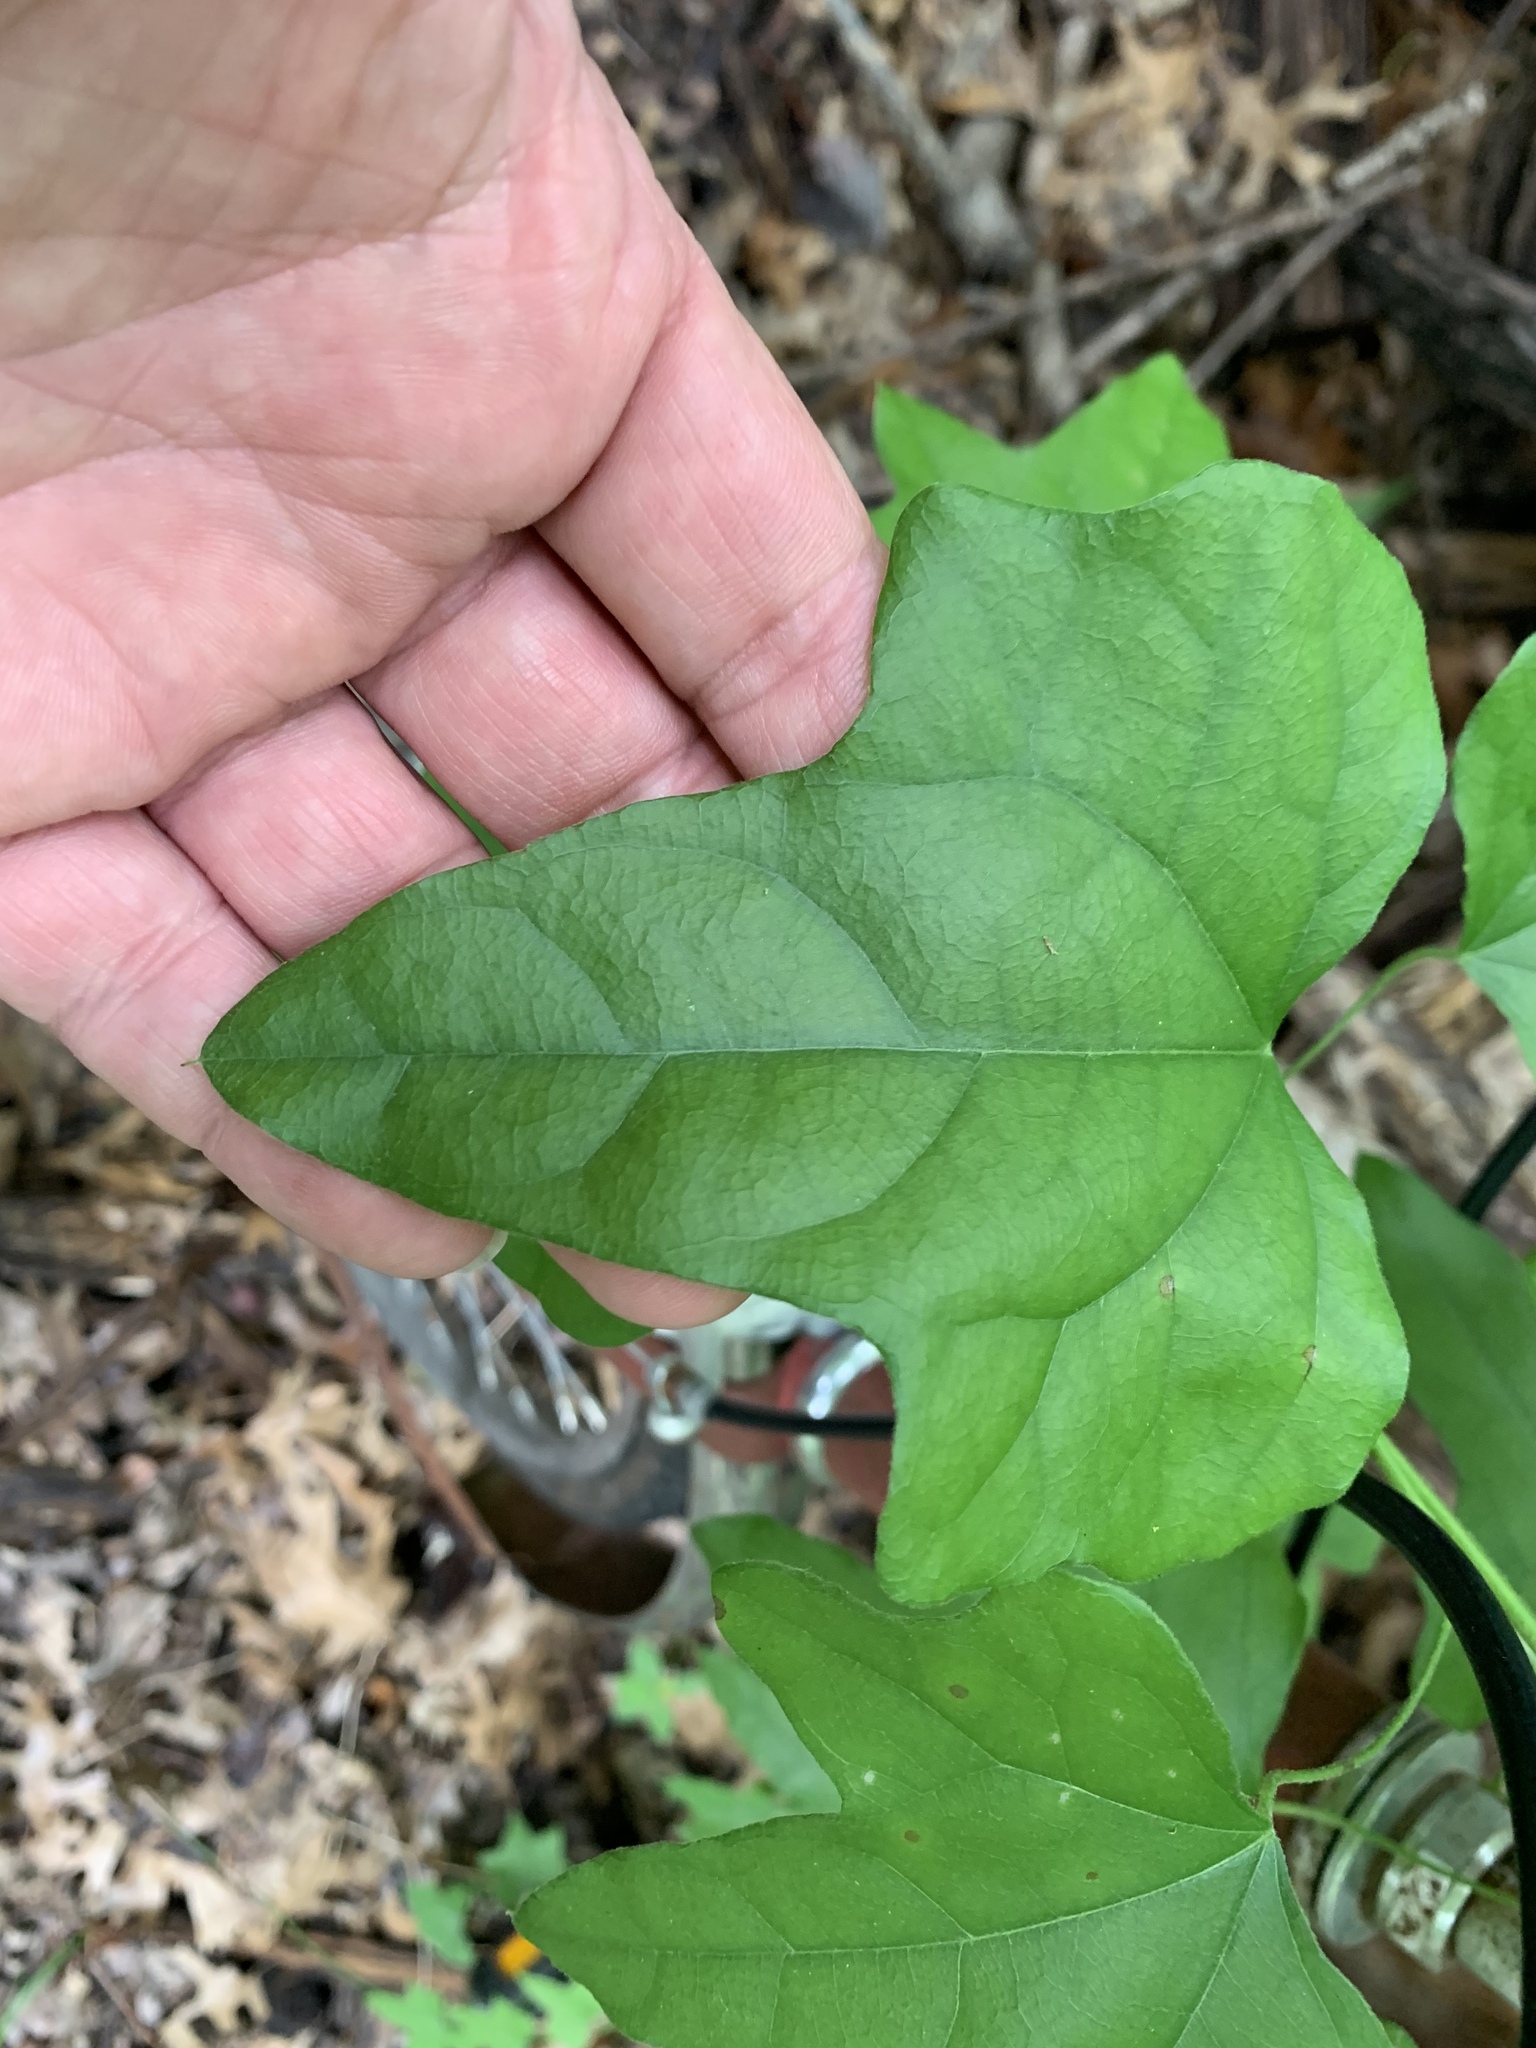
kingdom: Plantae
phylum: Tracheophyta
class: Magnoliopsida
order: Ranunculales
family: Menispermaceae
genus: Cocculus
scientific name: Cocculus carolinus
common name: Carolina moonseed
